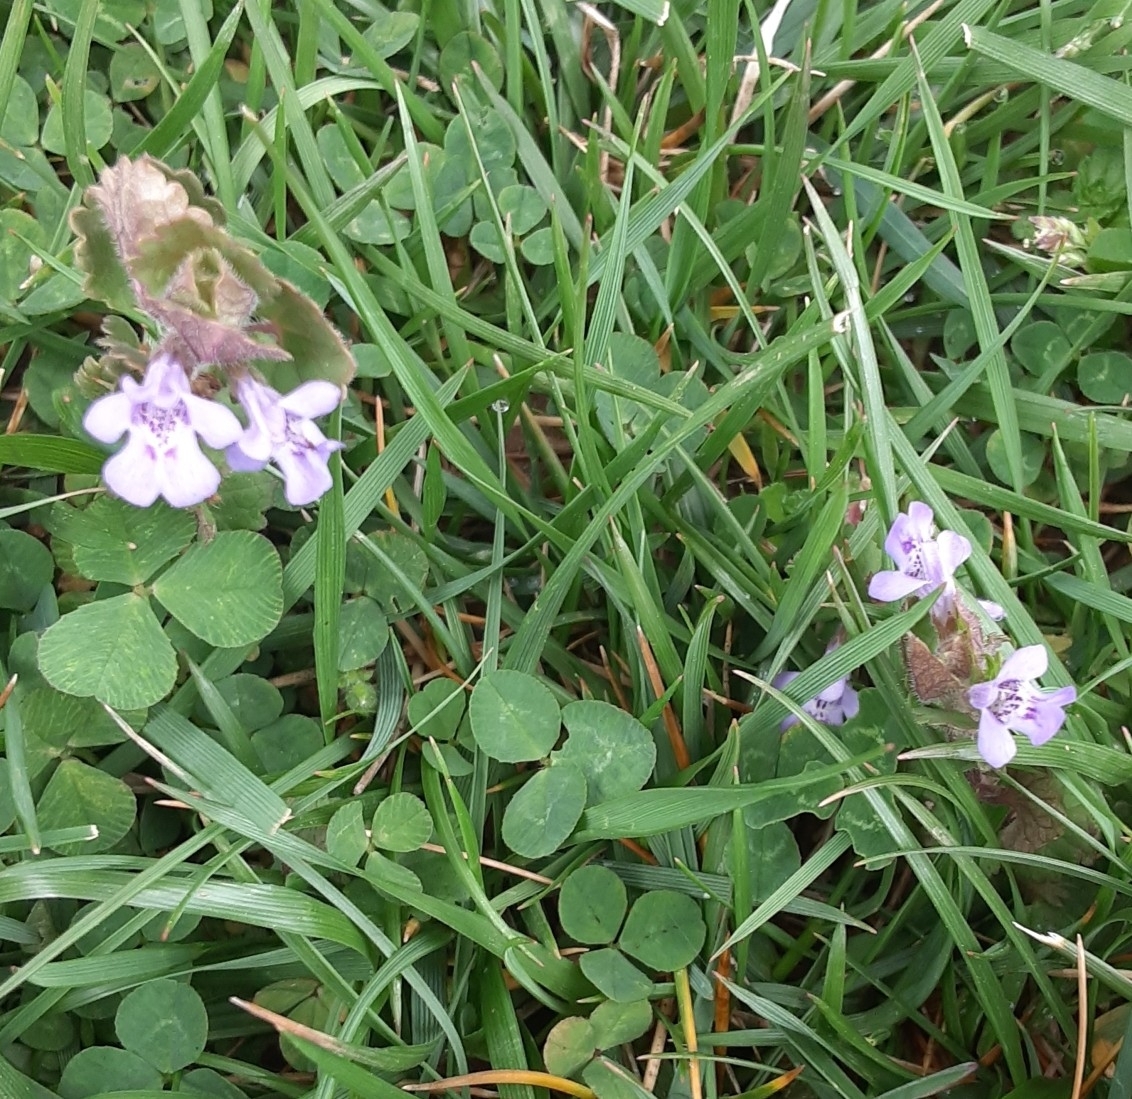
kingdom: Plantae
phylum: Tracheophyta
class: Magnoliopsida
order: Lamiales
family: Lamiaceae
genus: Glechoma
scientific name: Glechoma hederacea
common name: Ground ivy
